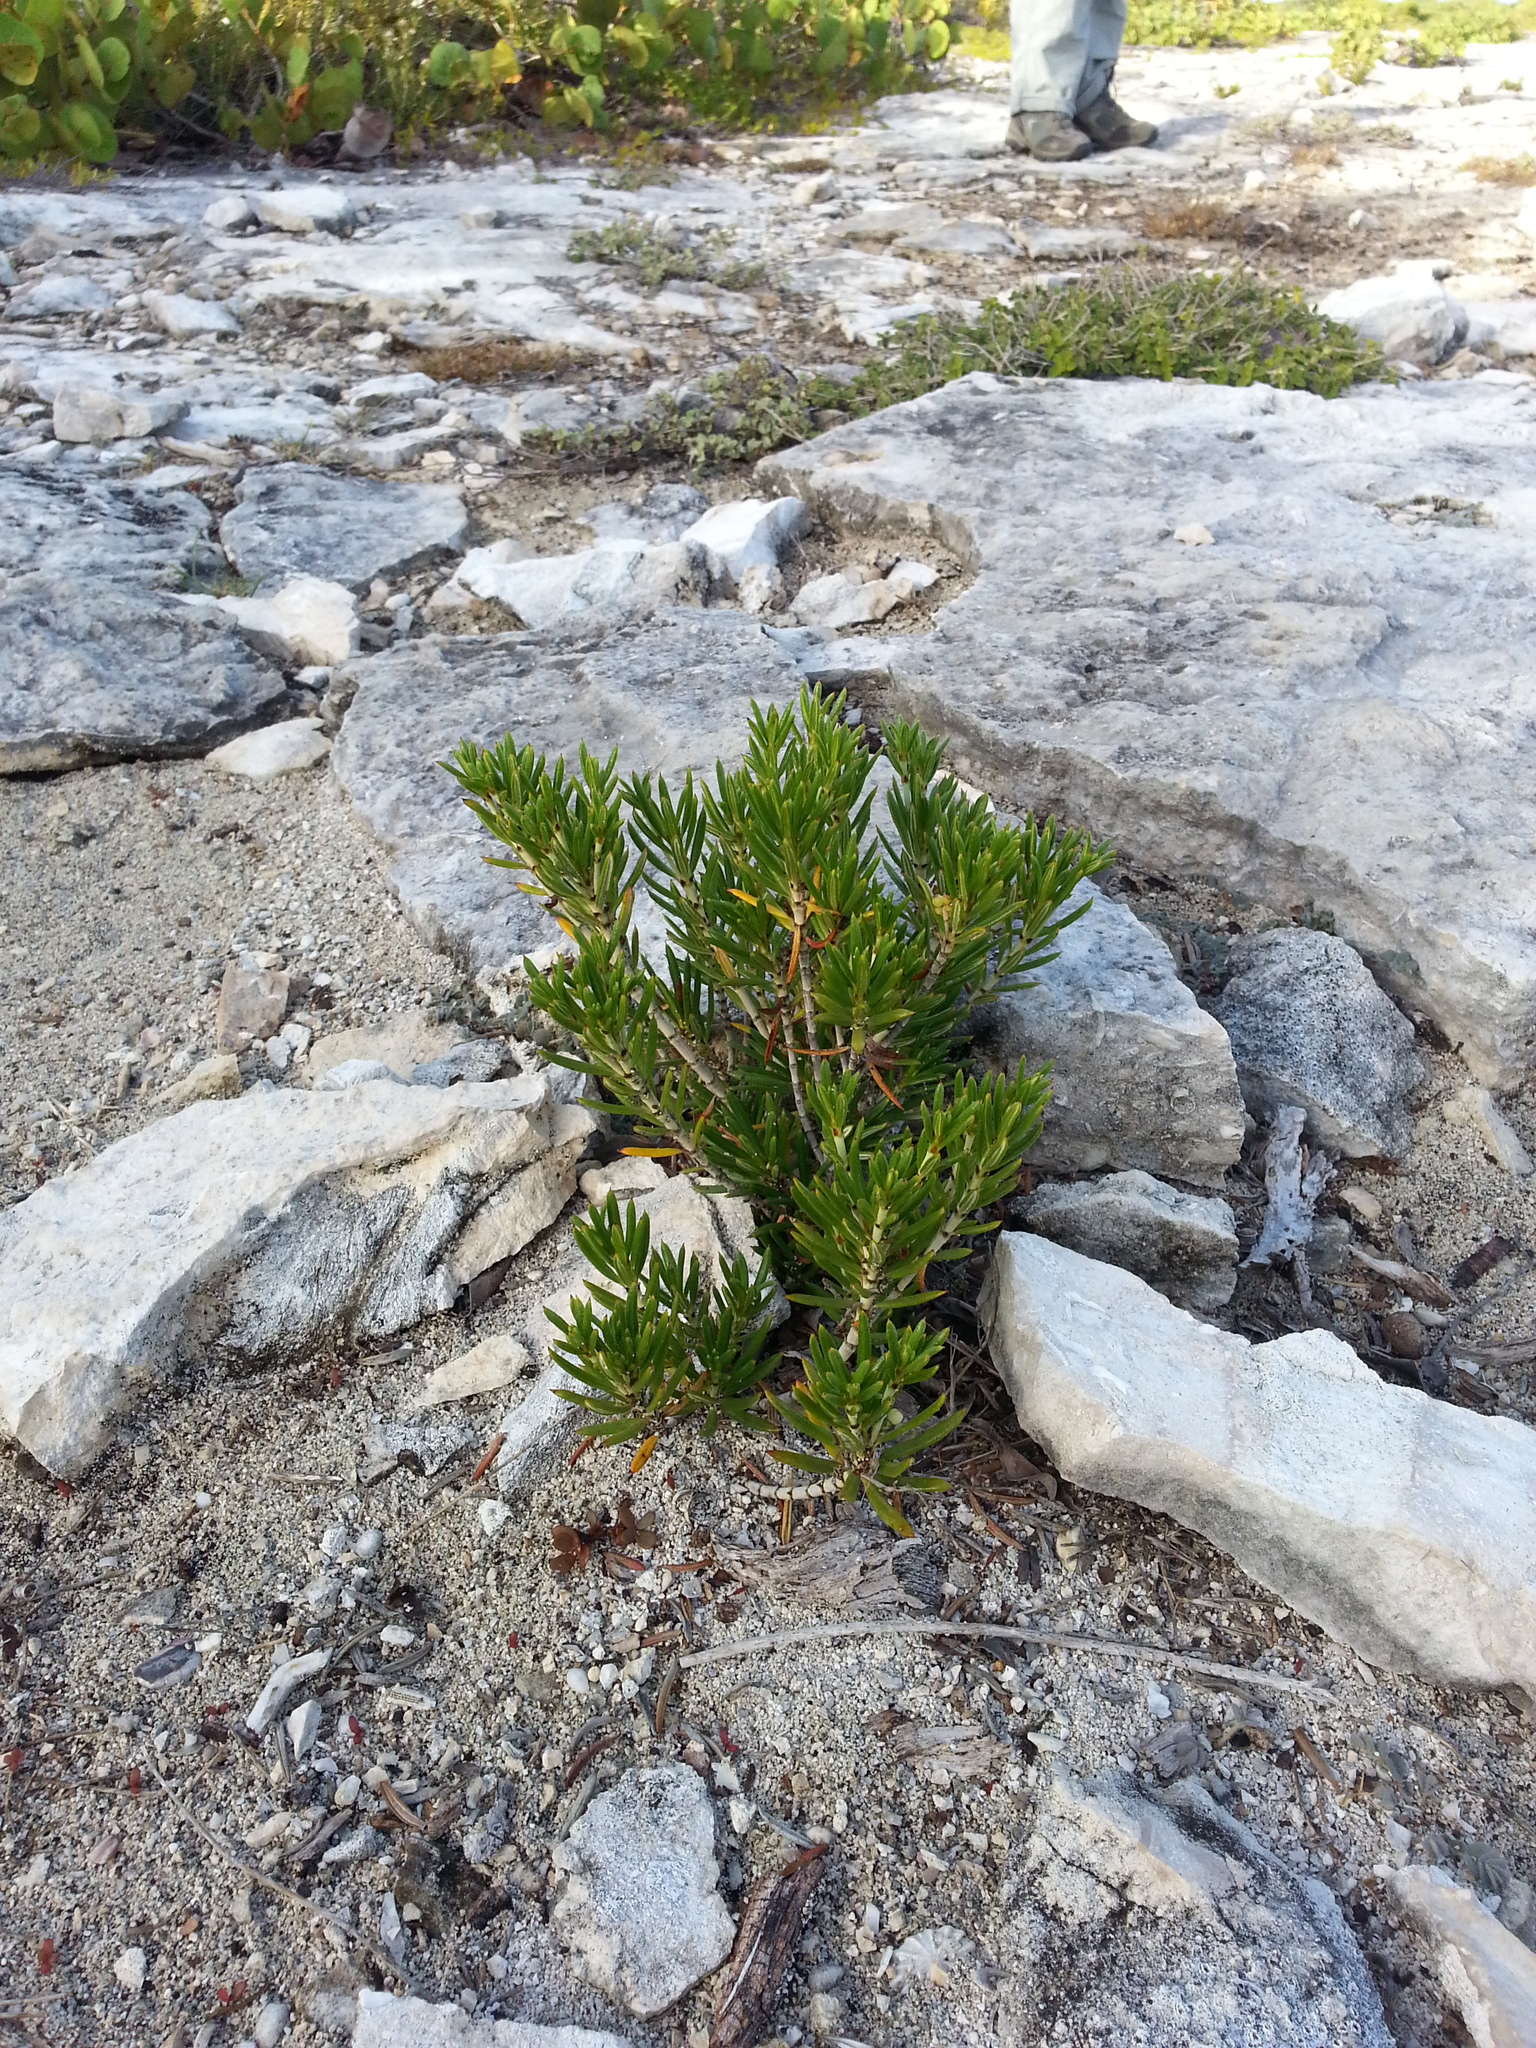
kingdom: Plantae
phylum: Tracheophyta
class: Magnoliopsida
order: Gentianales
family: Rubiaceae
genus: Strumpfia
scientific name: Strumpfia maritima
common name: Pride-of-big pine
